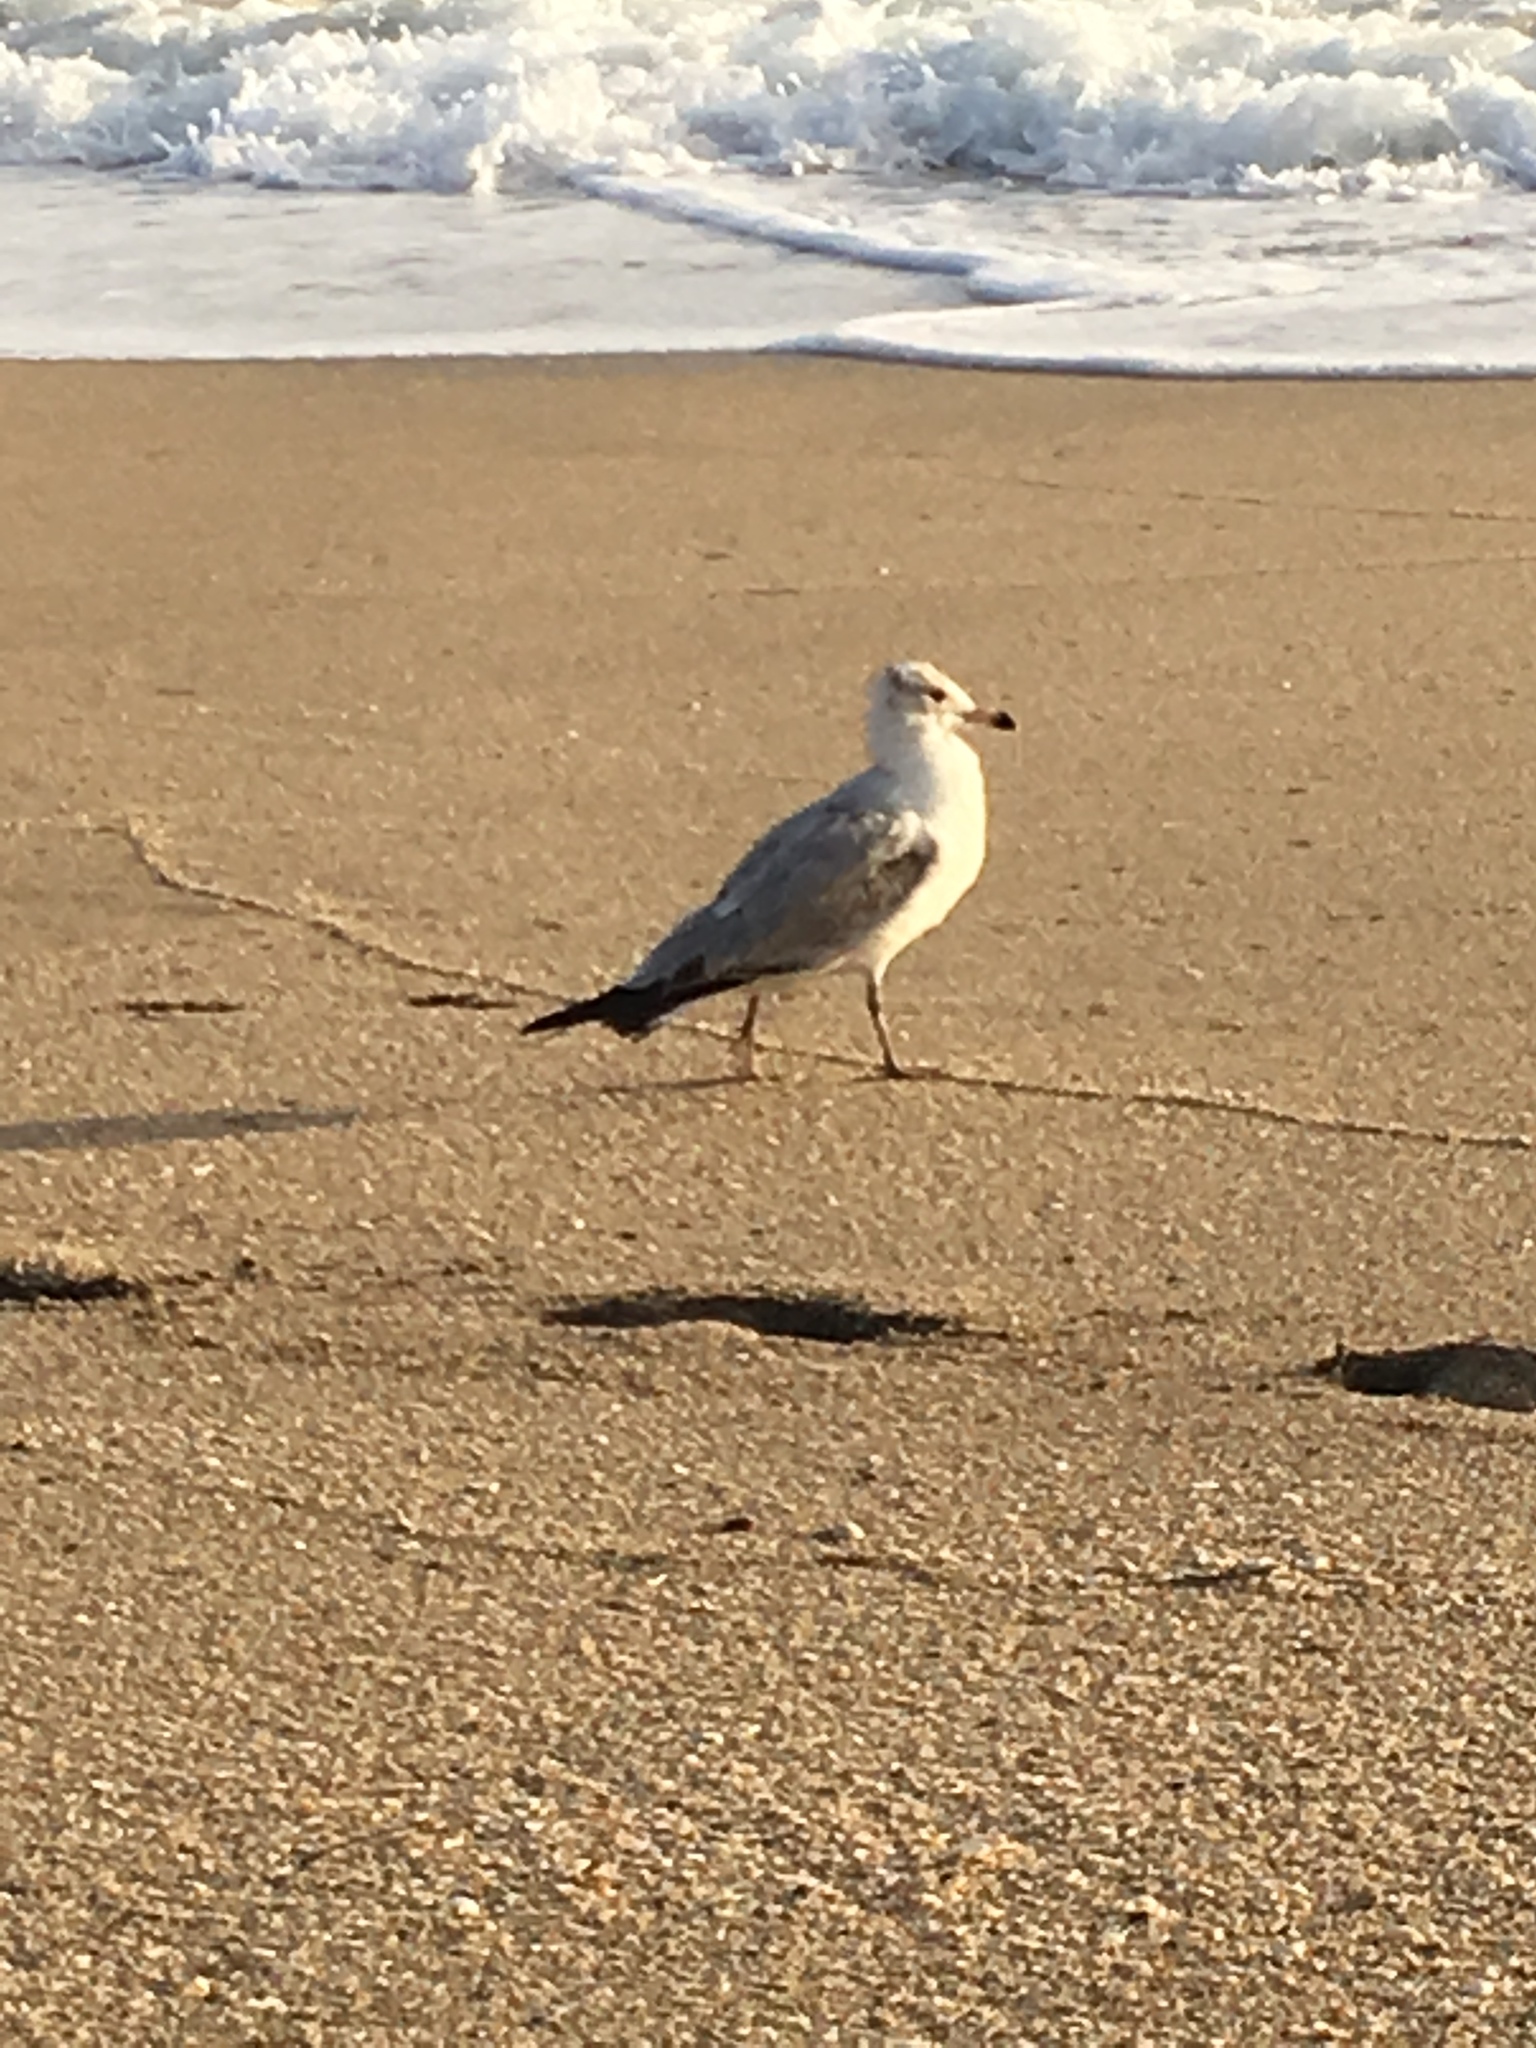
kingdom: Animalia
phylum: Chordata
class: Aves
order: Charadriiformes
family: Laridae
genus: Larus
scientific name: Larus delawarensis
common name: Ring-billed gull
